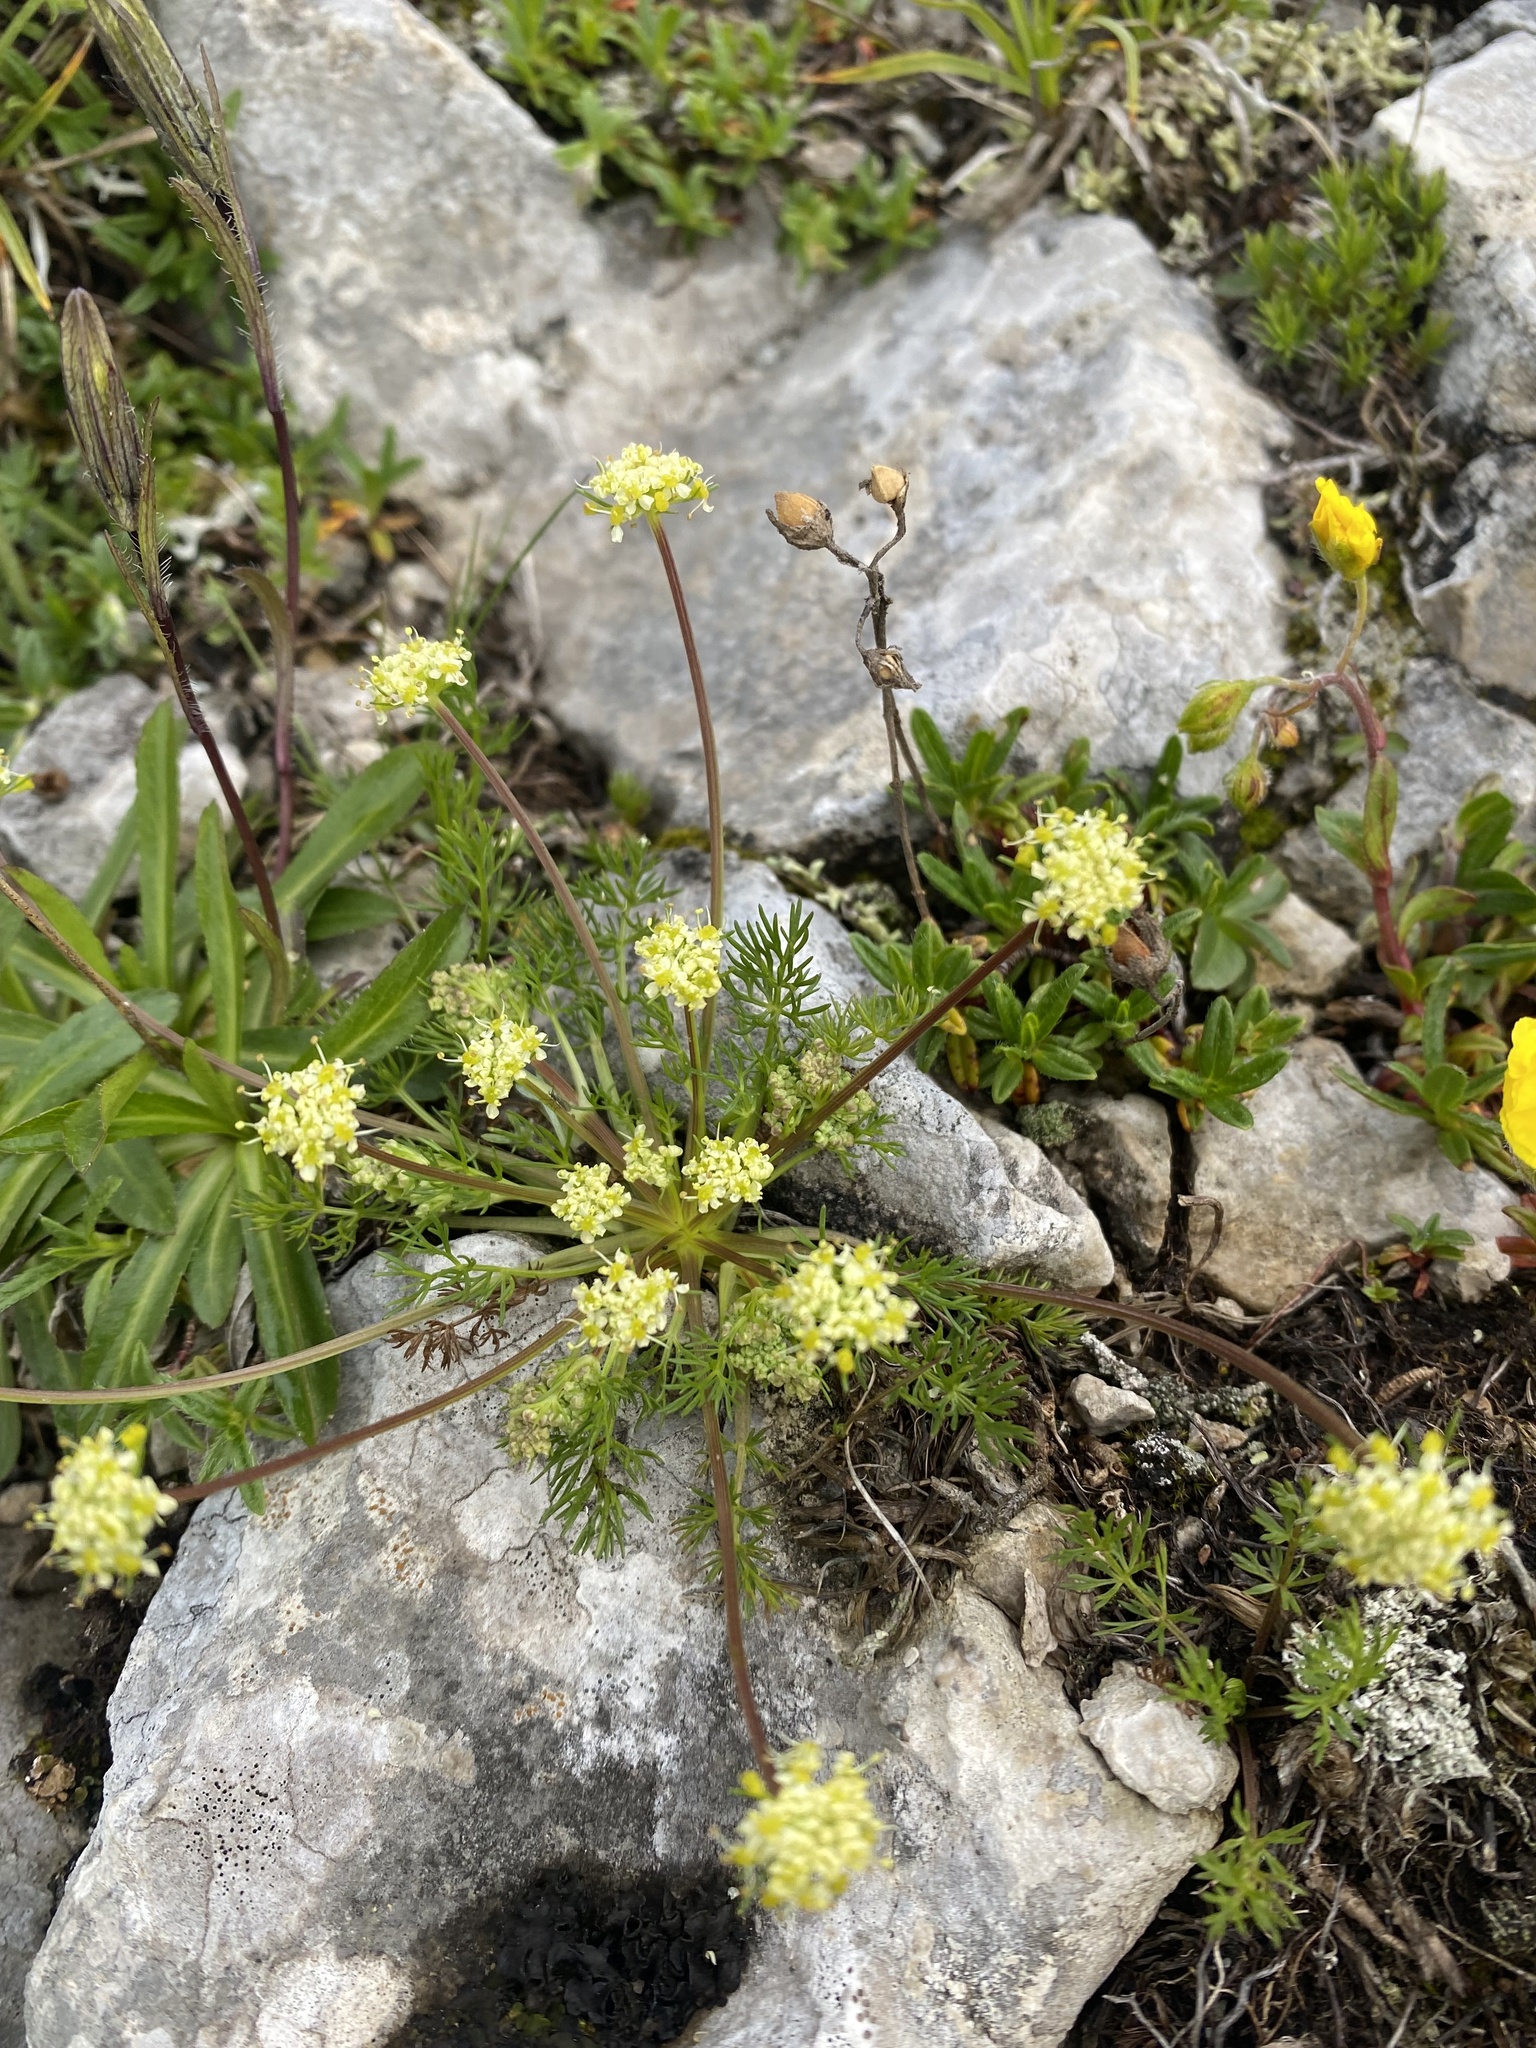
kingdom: Plantae
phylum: Tracheophyta
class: Magnoliopsida
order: Apiales
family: Apiaceae
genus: Chamaesciadium
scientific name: Chamaesciadium acaule
